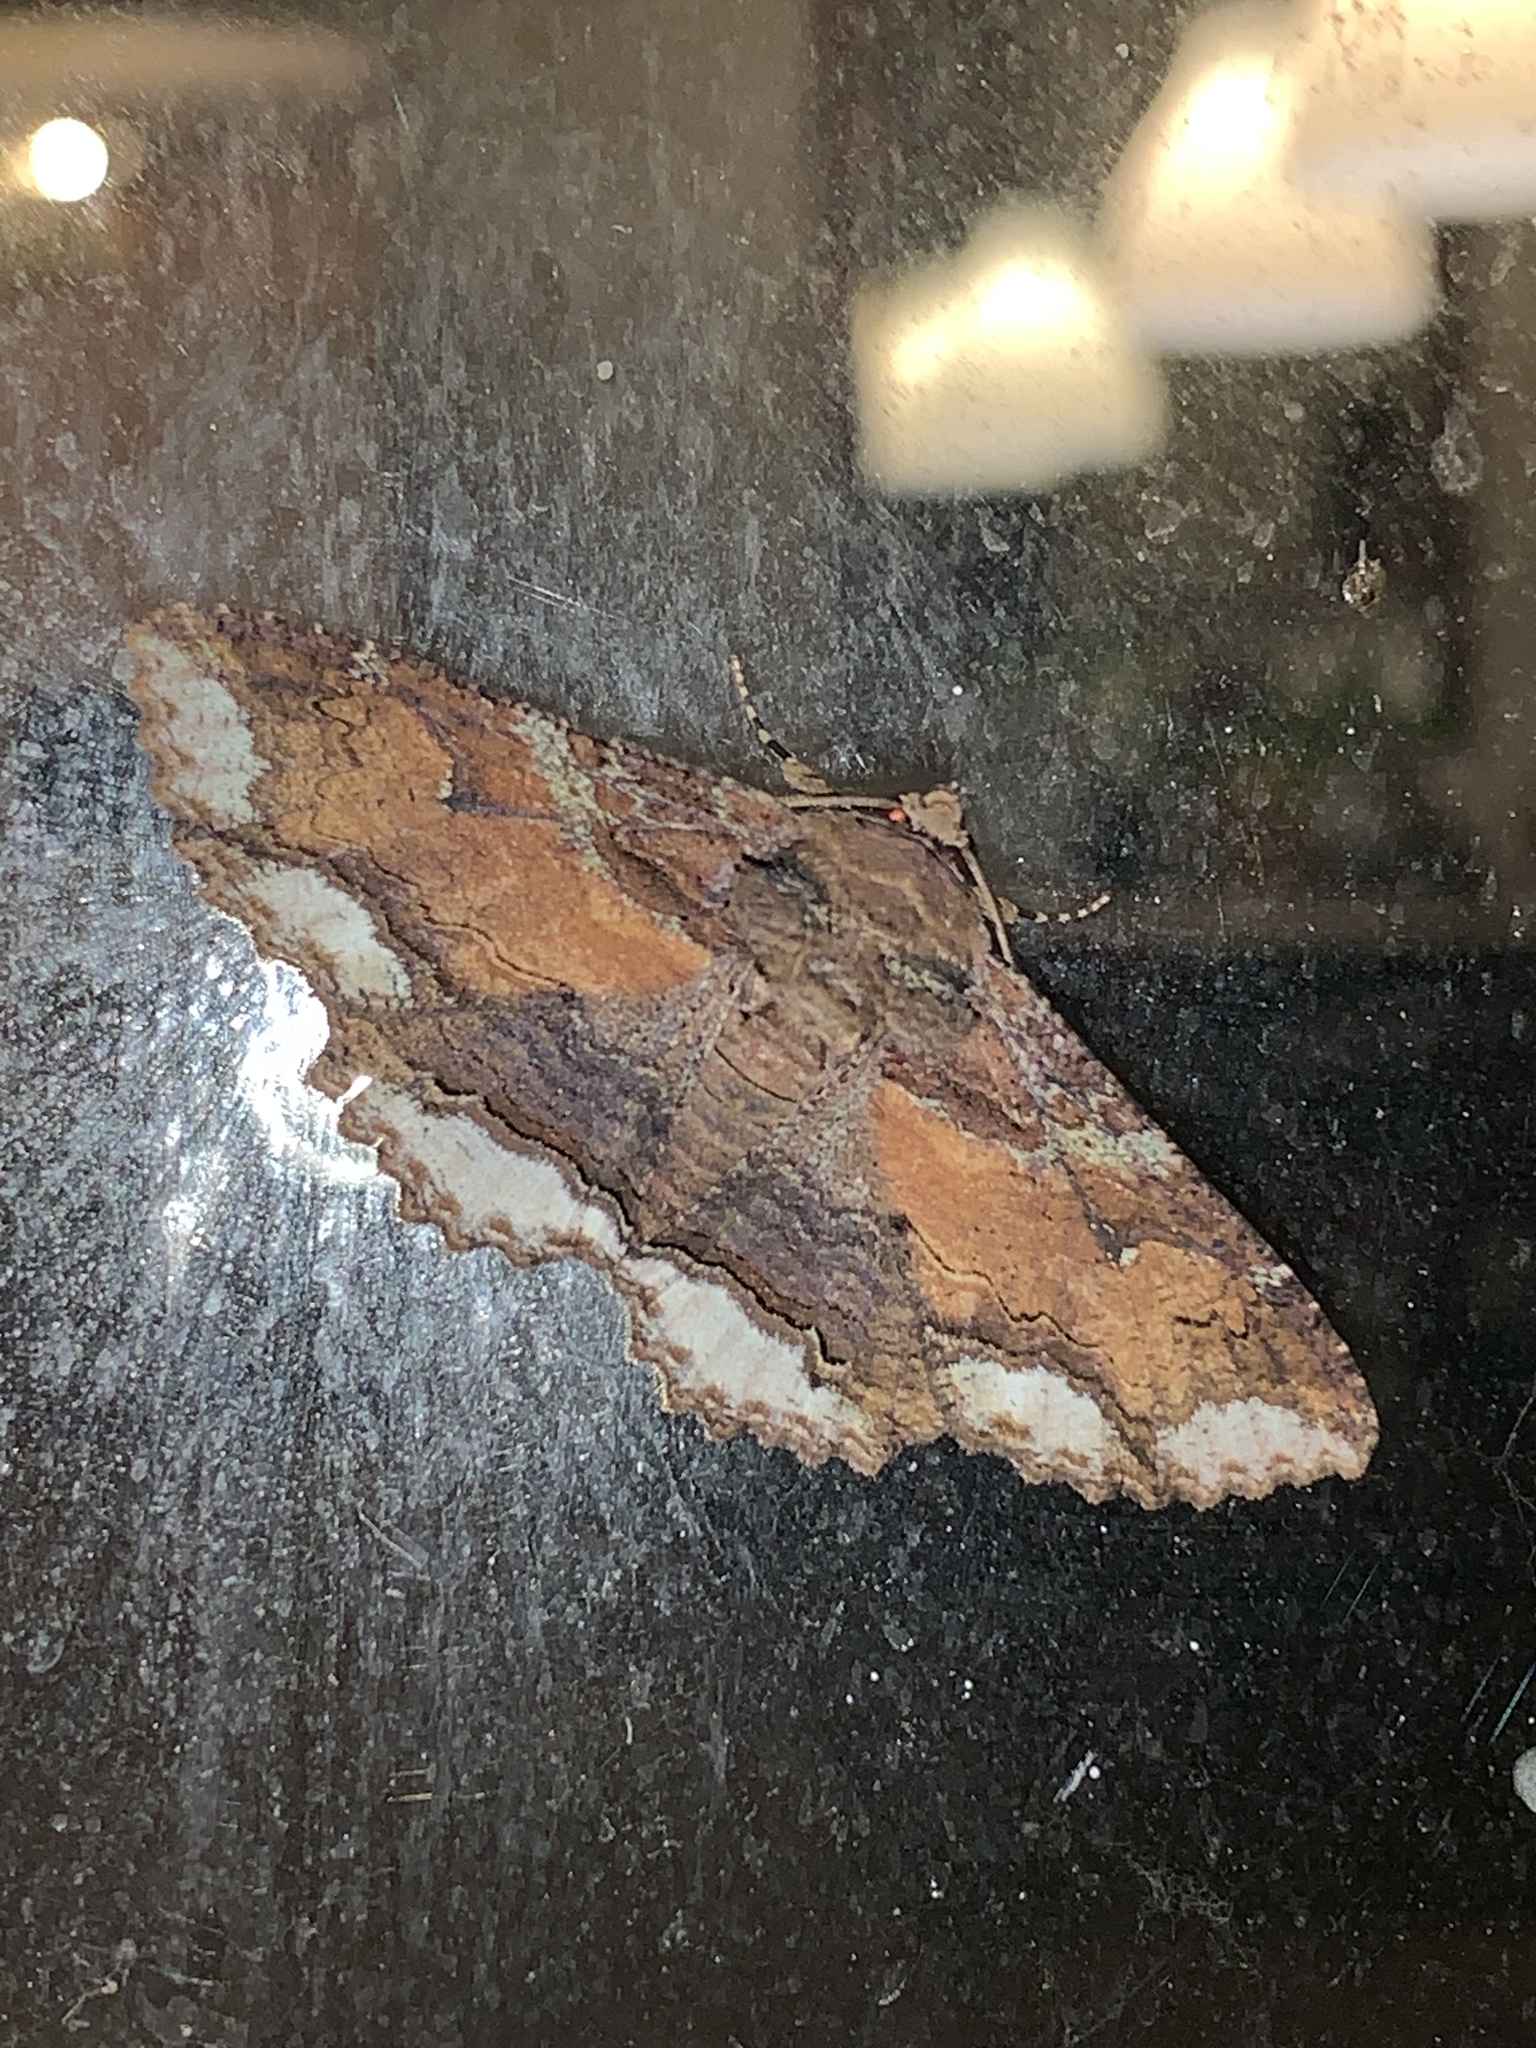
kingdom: Animalia
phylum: Arthropoda
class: Insecta
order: Lepidoptera
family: Erebidae
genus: Zale
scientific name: Zale lunata
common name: Lunate zale moth
